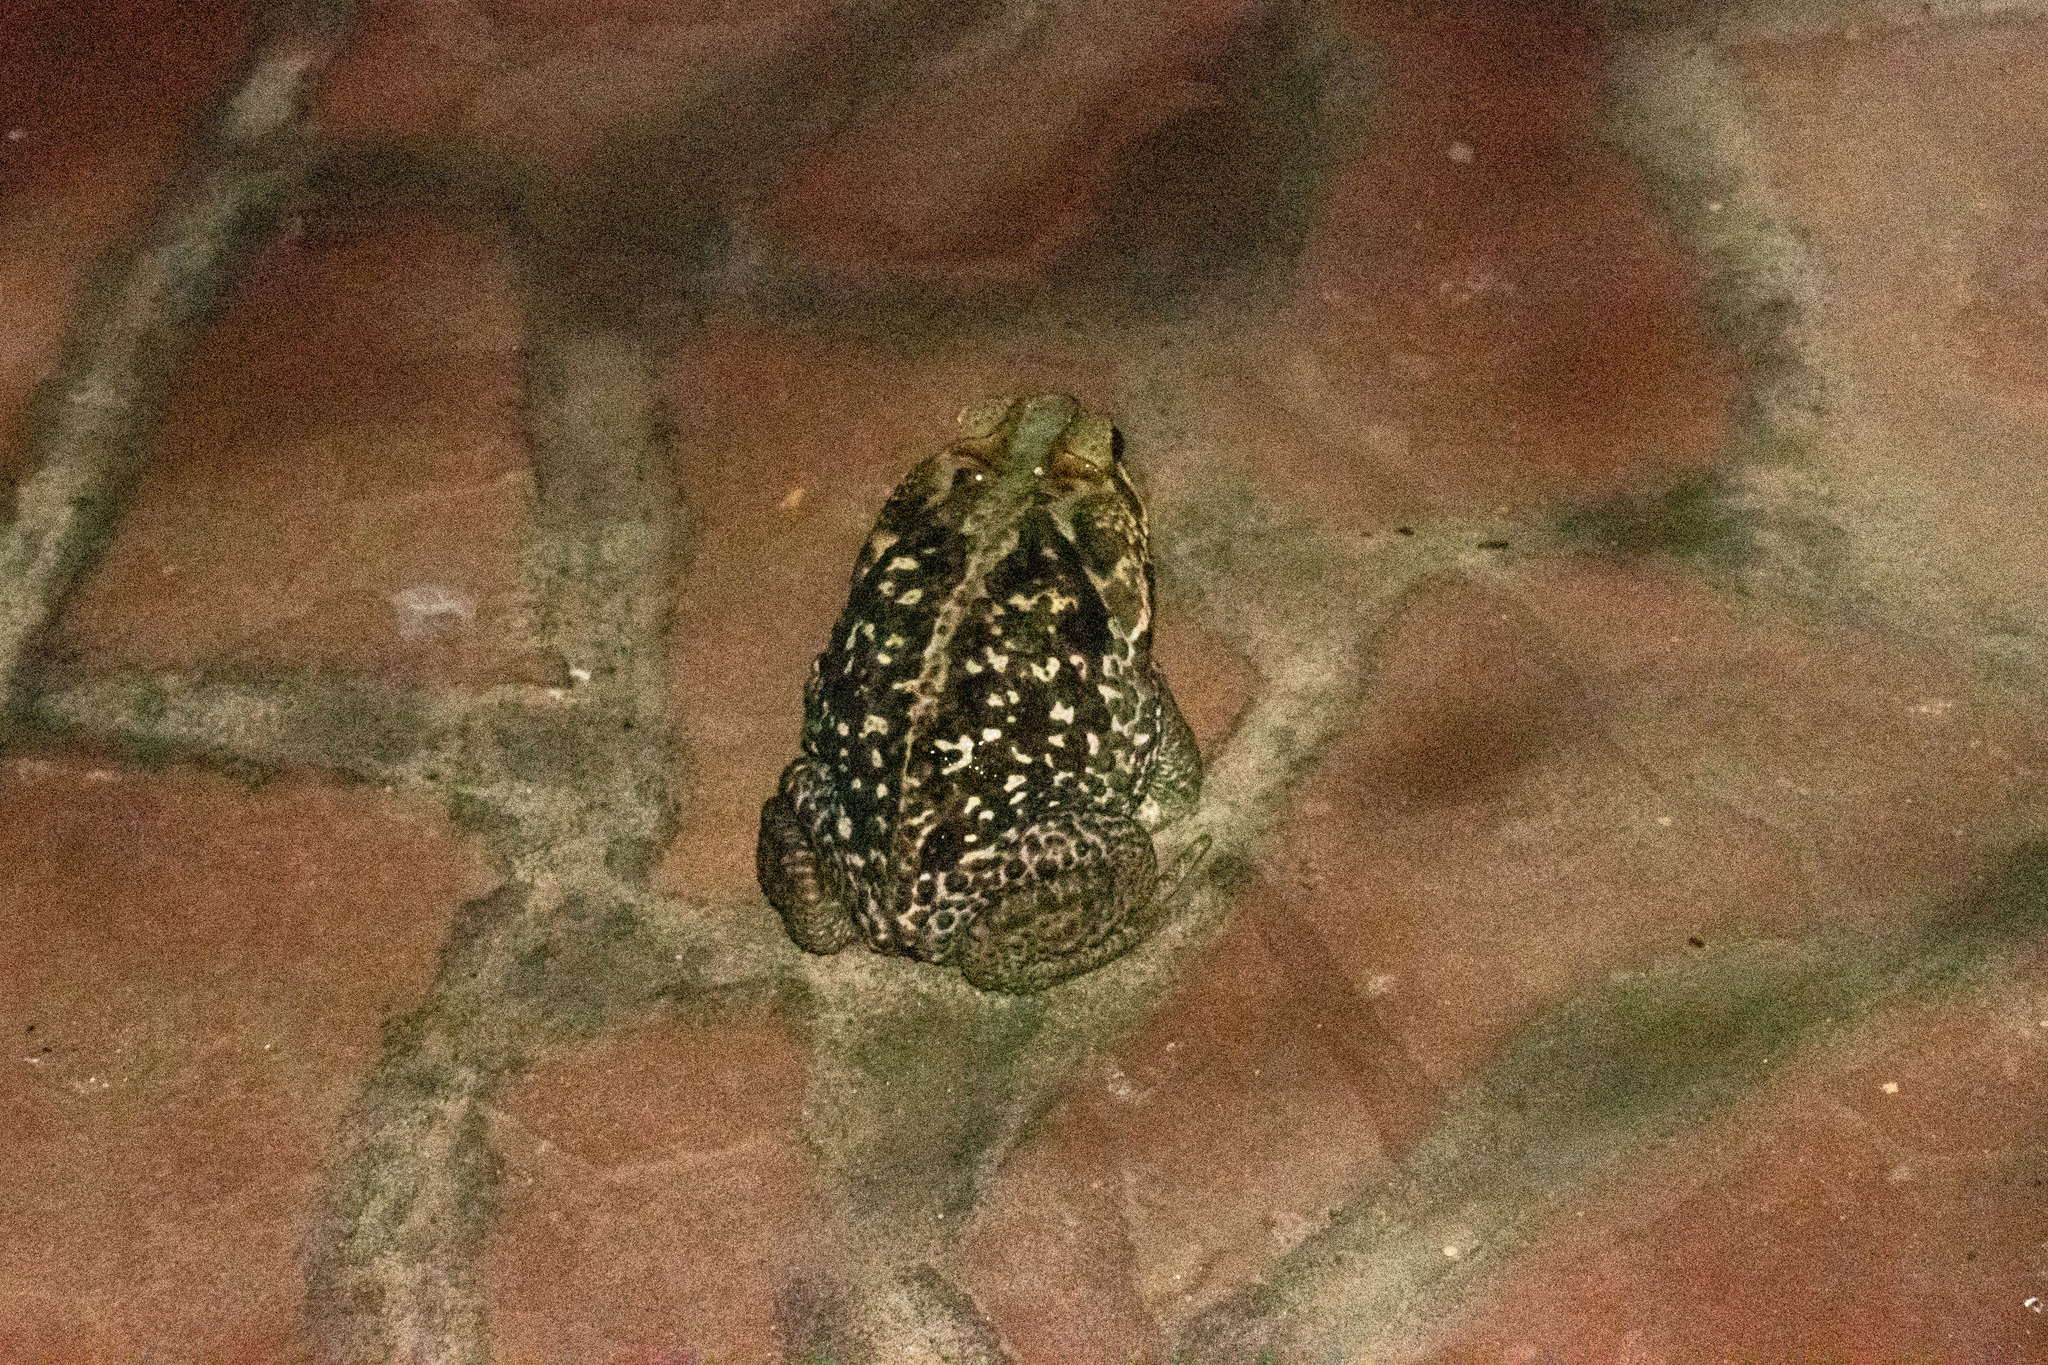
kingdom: Animalia
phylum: Chordata
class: Amphibia
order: Anura
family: Bufonidae
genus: Rhinella
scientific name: Rhinella diptycha
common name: Cope's toad
